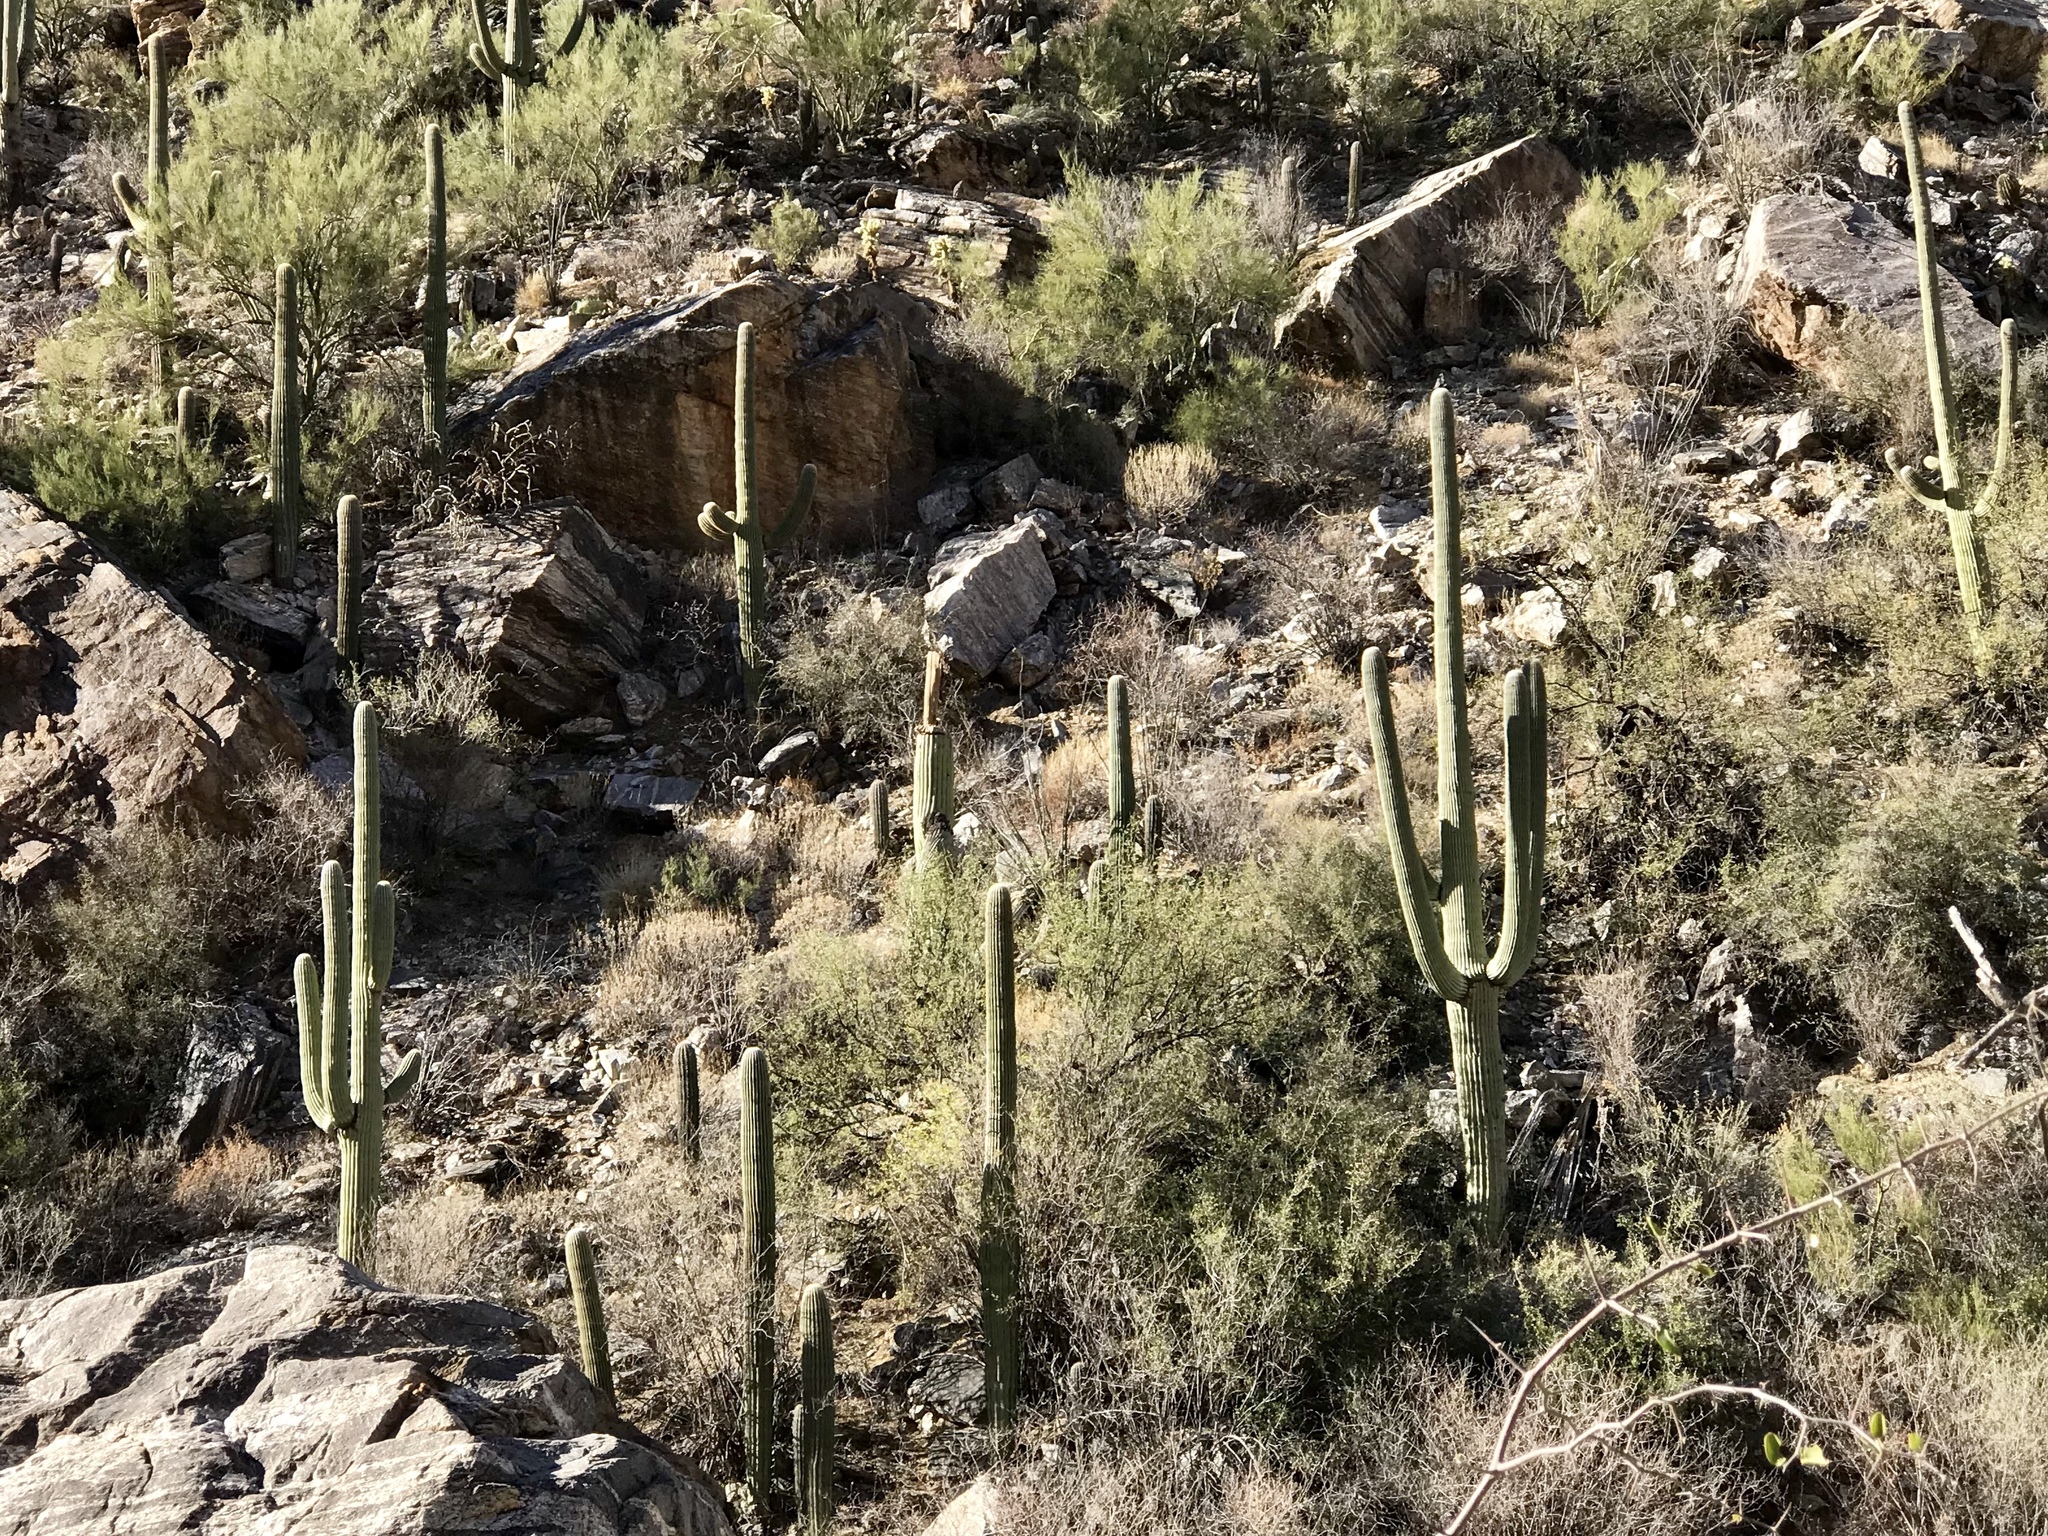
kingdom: Plantae
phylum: Tracheophyta
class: Magnoliopsida
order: Caryophyllales
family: Cactaceae
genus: Carnegiea
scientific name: Carnegiea gigantea
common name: Saguaro
